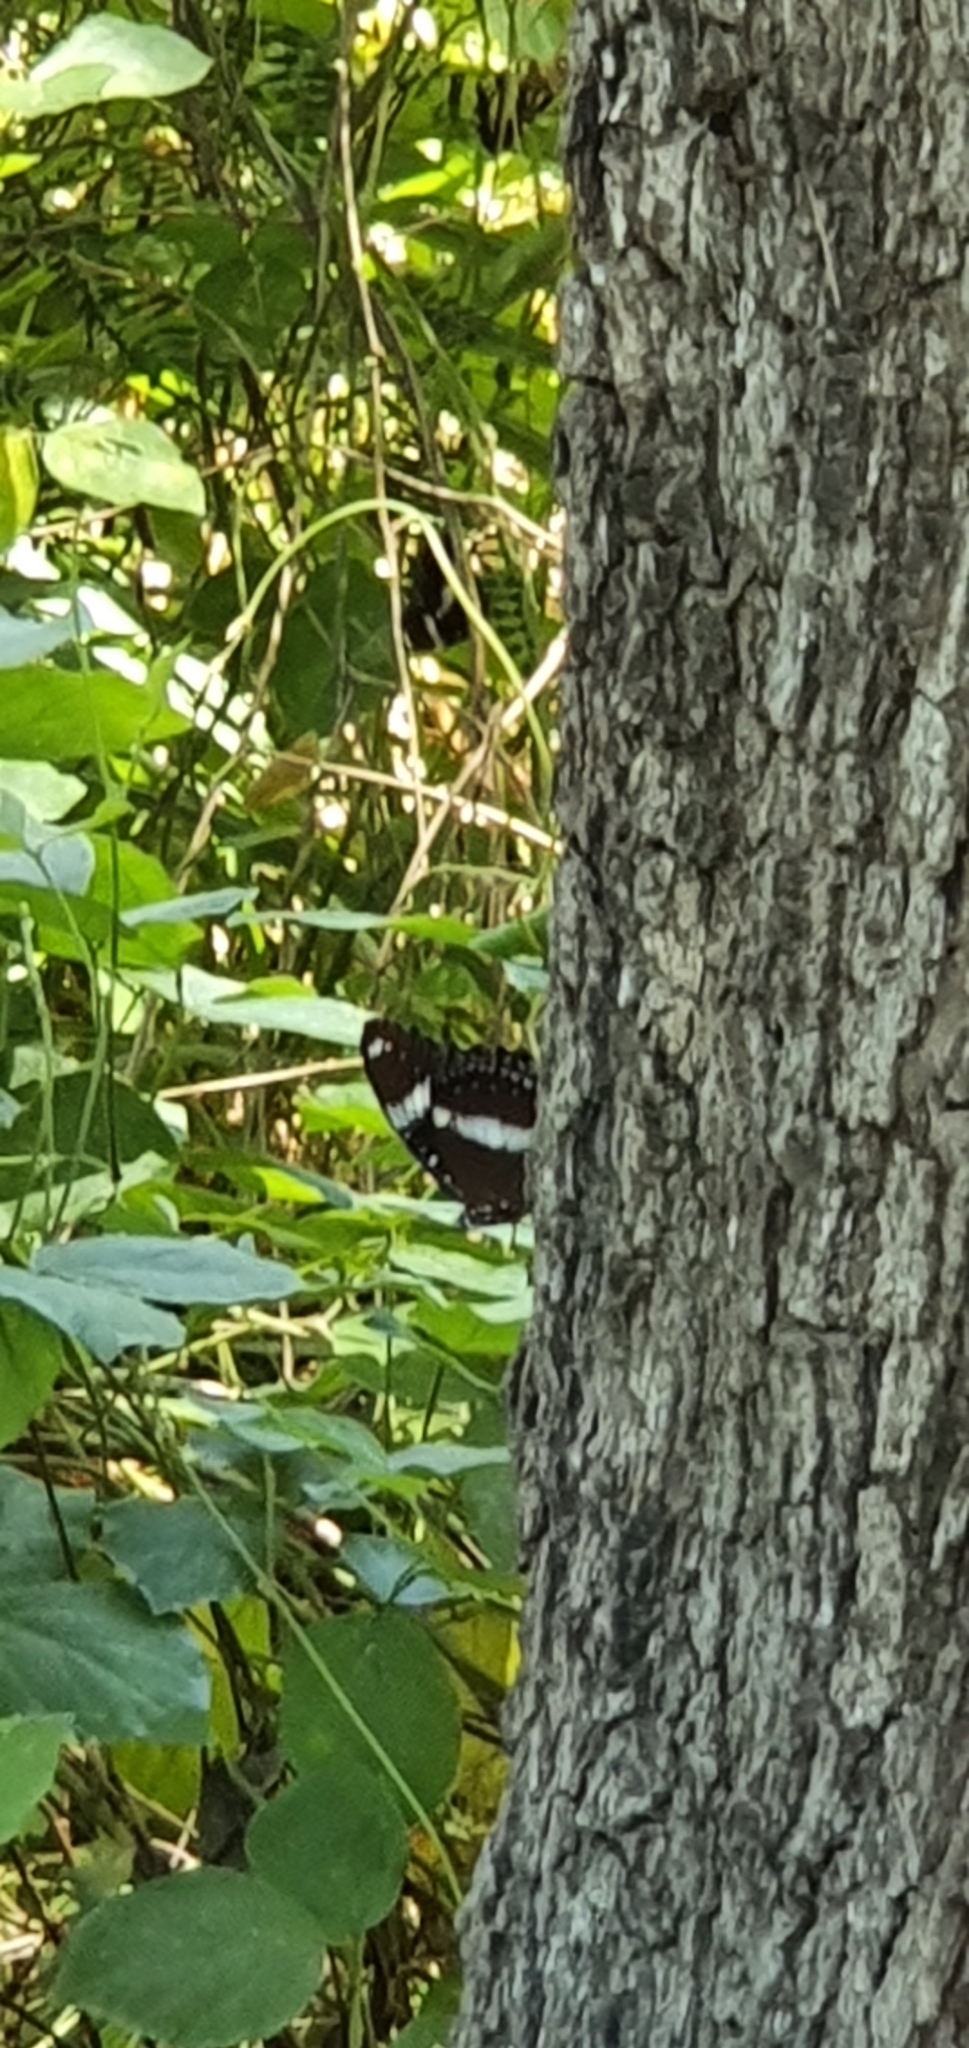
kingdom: Animalia
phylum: Arthropoda
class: Insecta
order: Lepidoptera
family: Nymphalidae
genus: Hypolimnas
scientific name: Hypolimnas bolina
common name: Great eggfly
